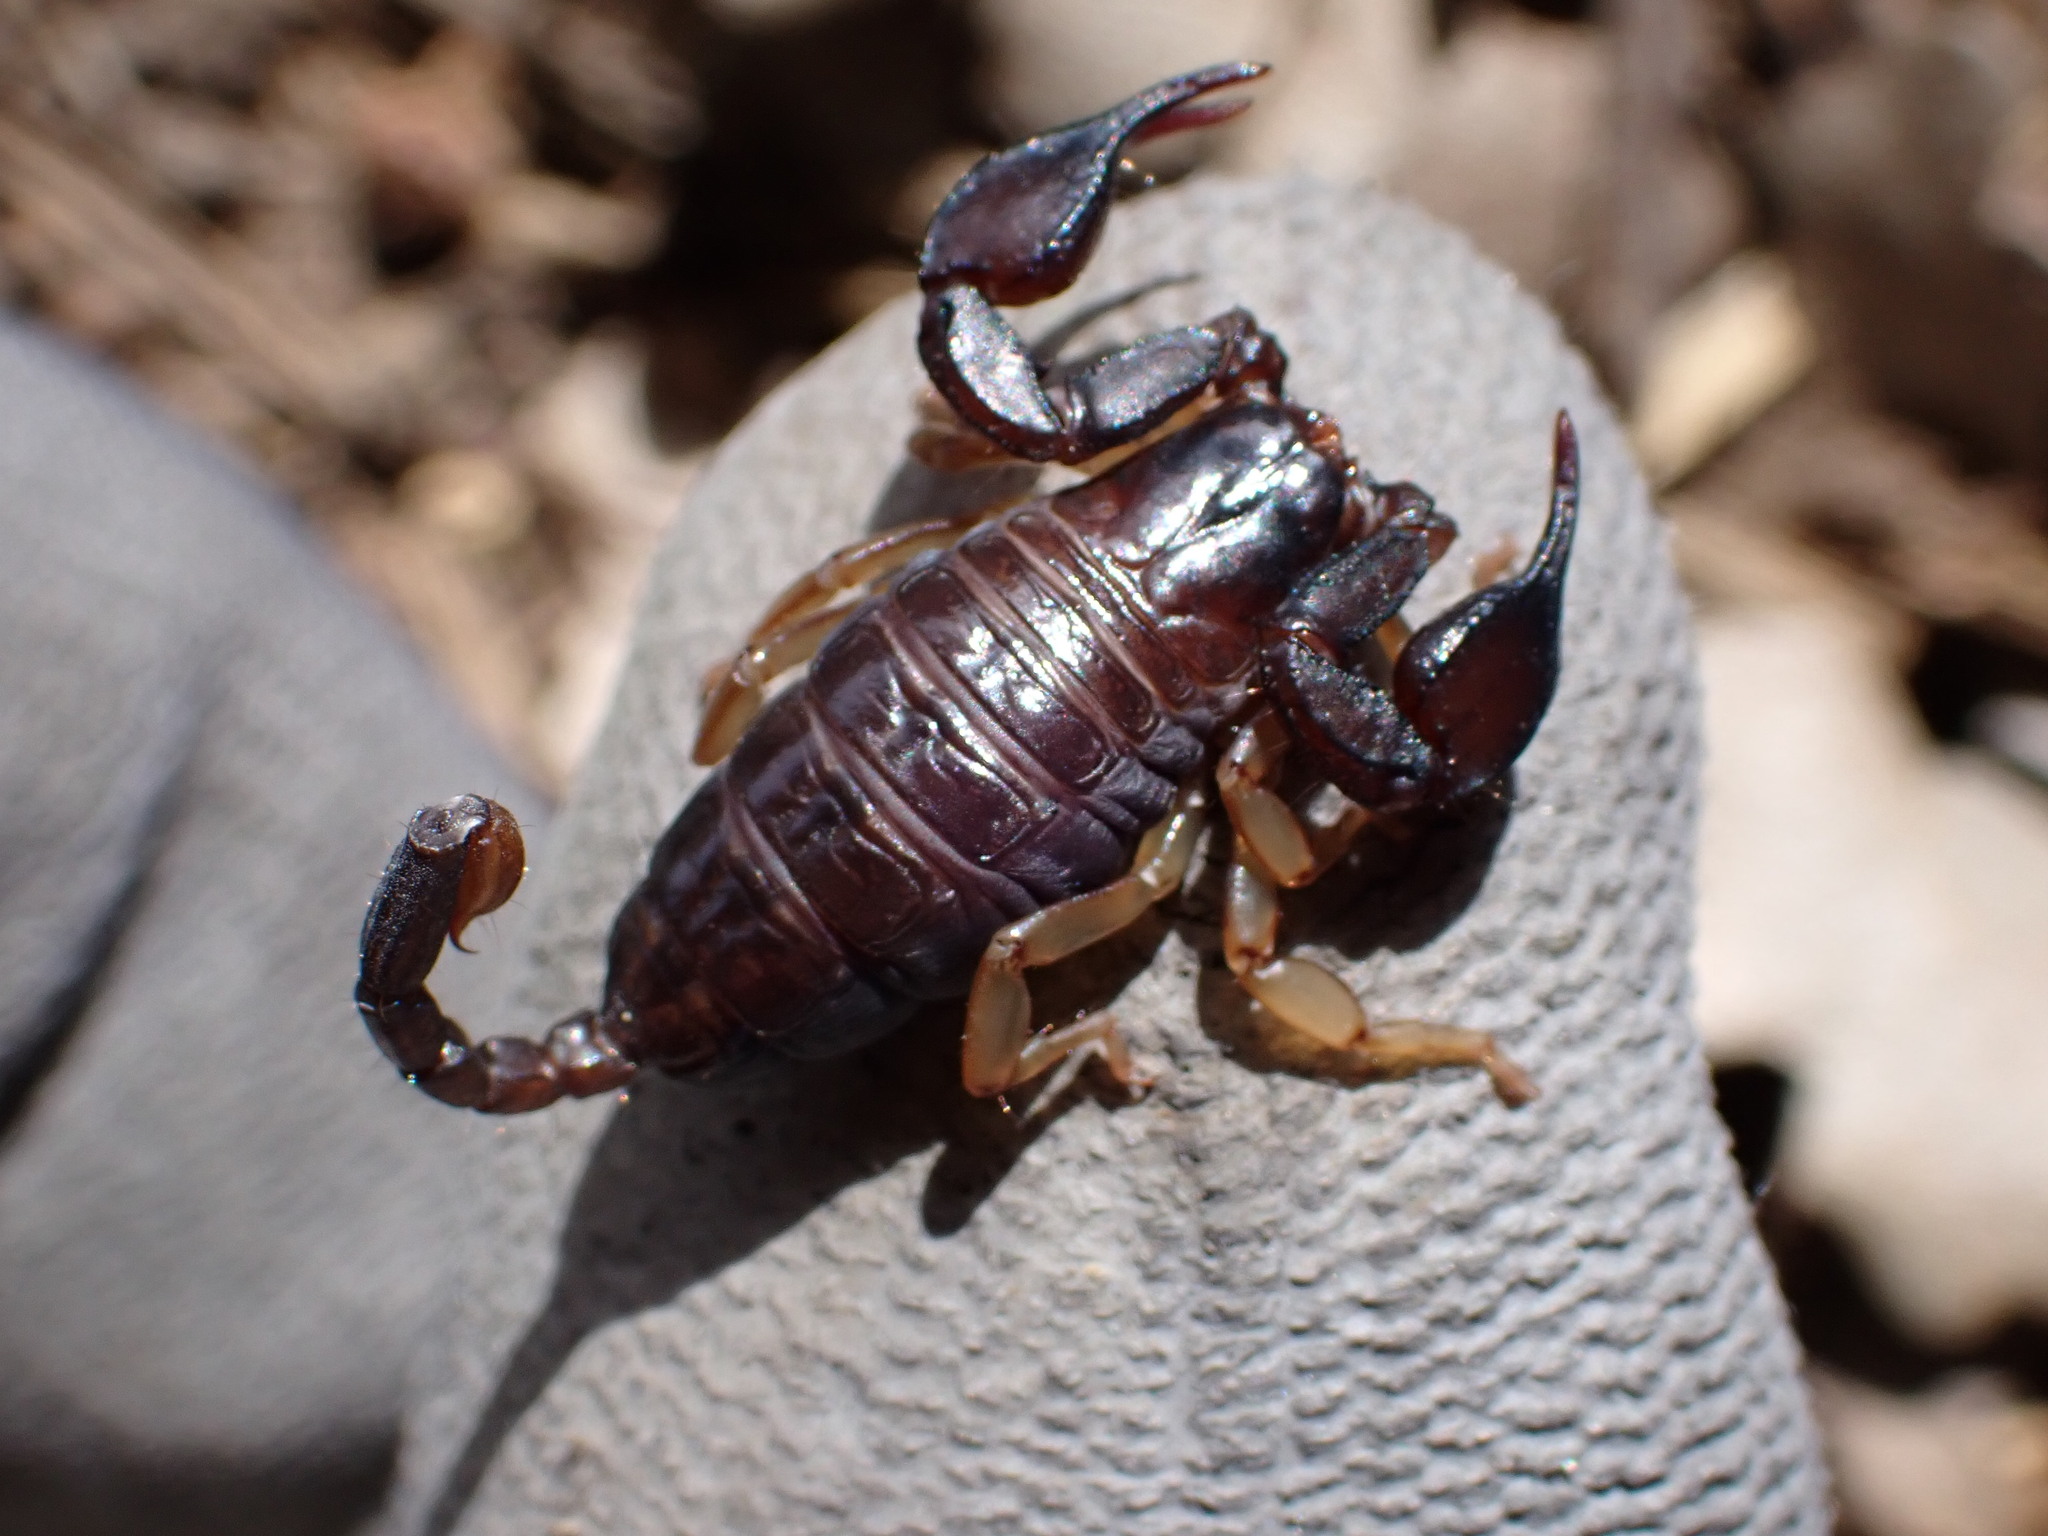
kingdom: Animalia
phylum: Arthropoda
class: Arachnida
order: Scorpiones
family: Euscorpiidae
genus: Euscorpius
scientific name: Euscorpius niciensis
